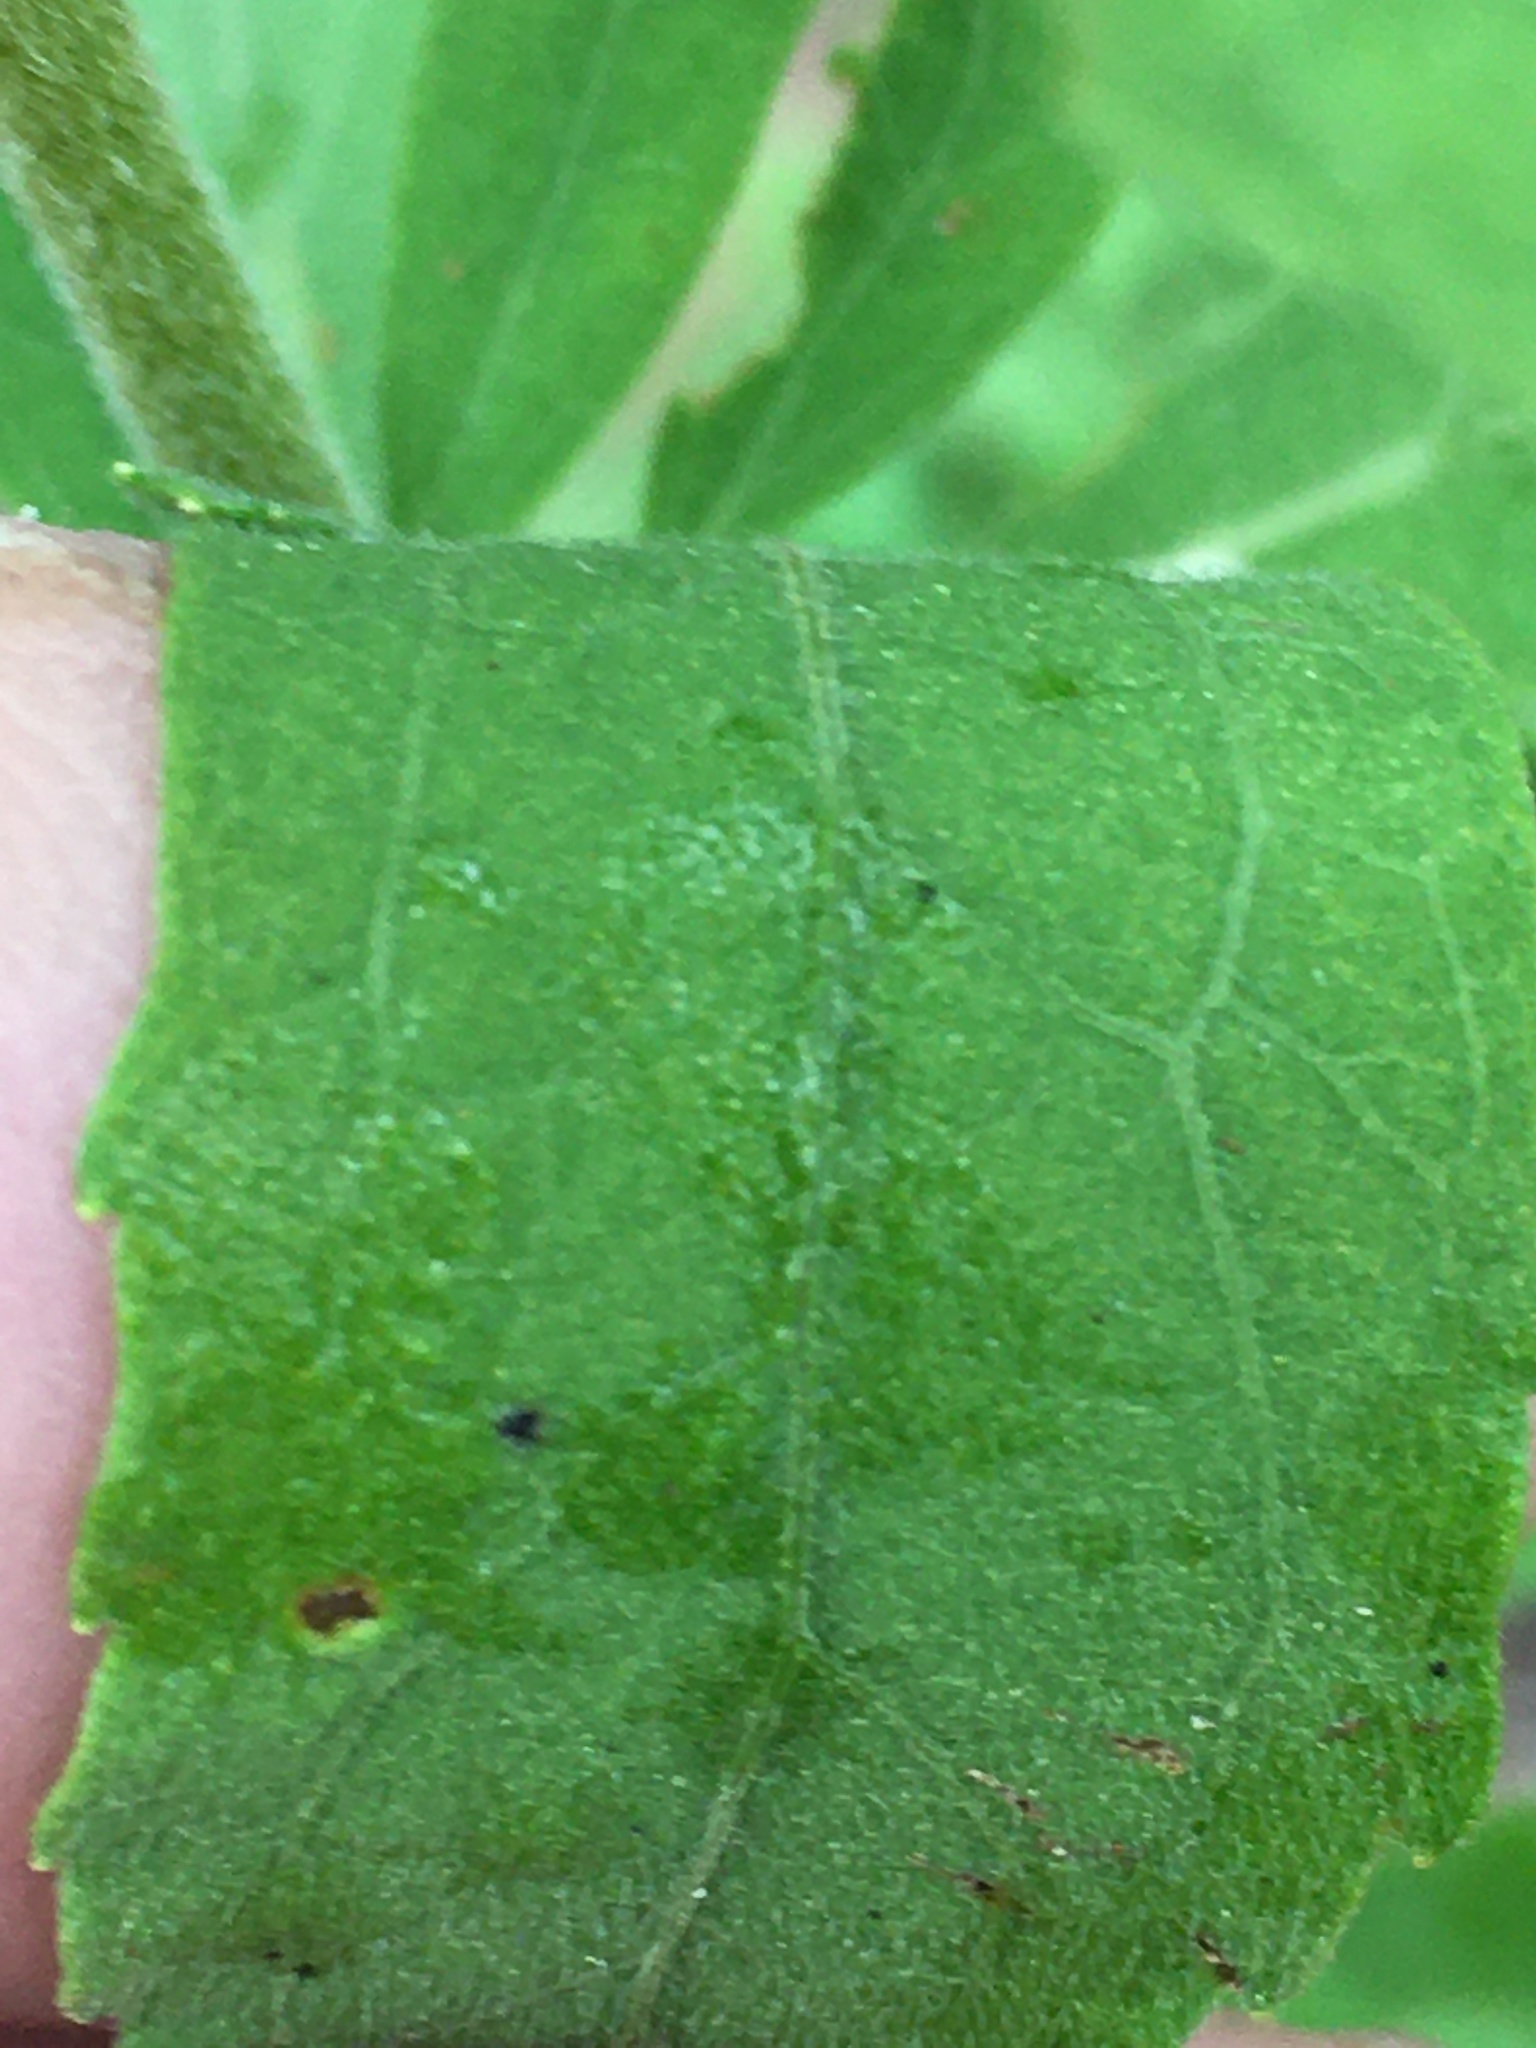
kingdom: Plantae
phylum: Tracheophyta
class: Magnoliopsida
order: Asterales
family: Asteraceae
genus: Eupatorium
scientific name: Eupatorium semiserratum
